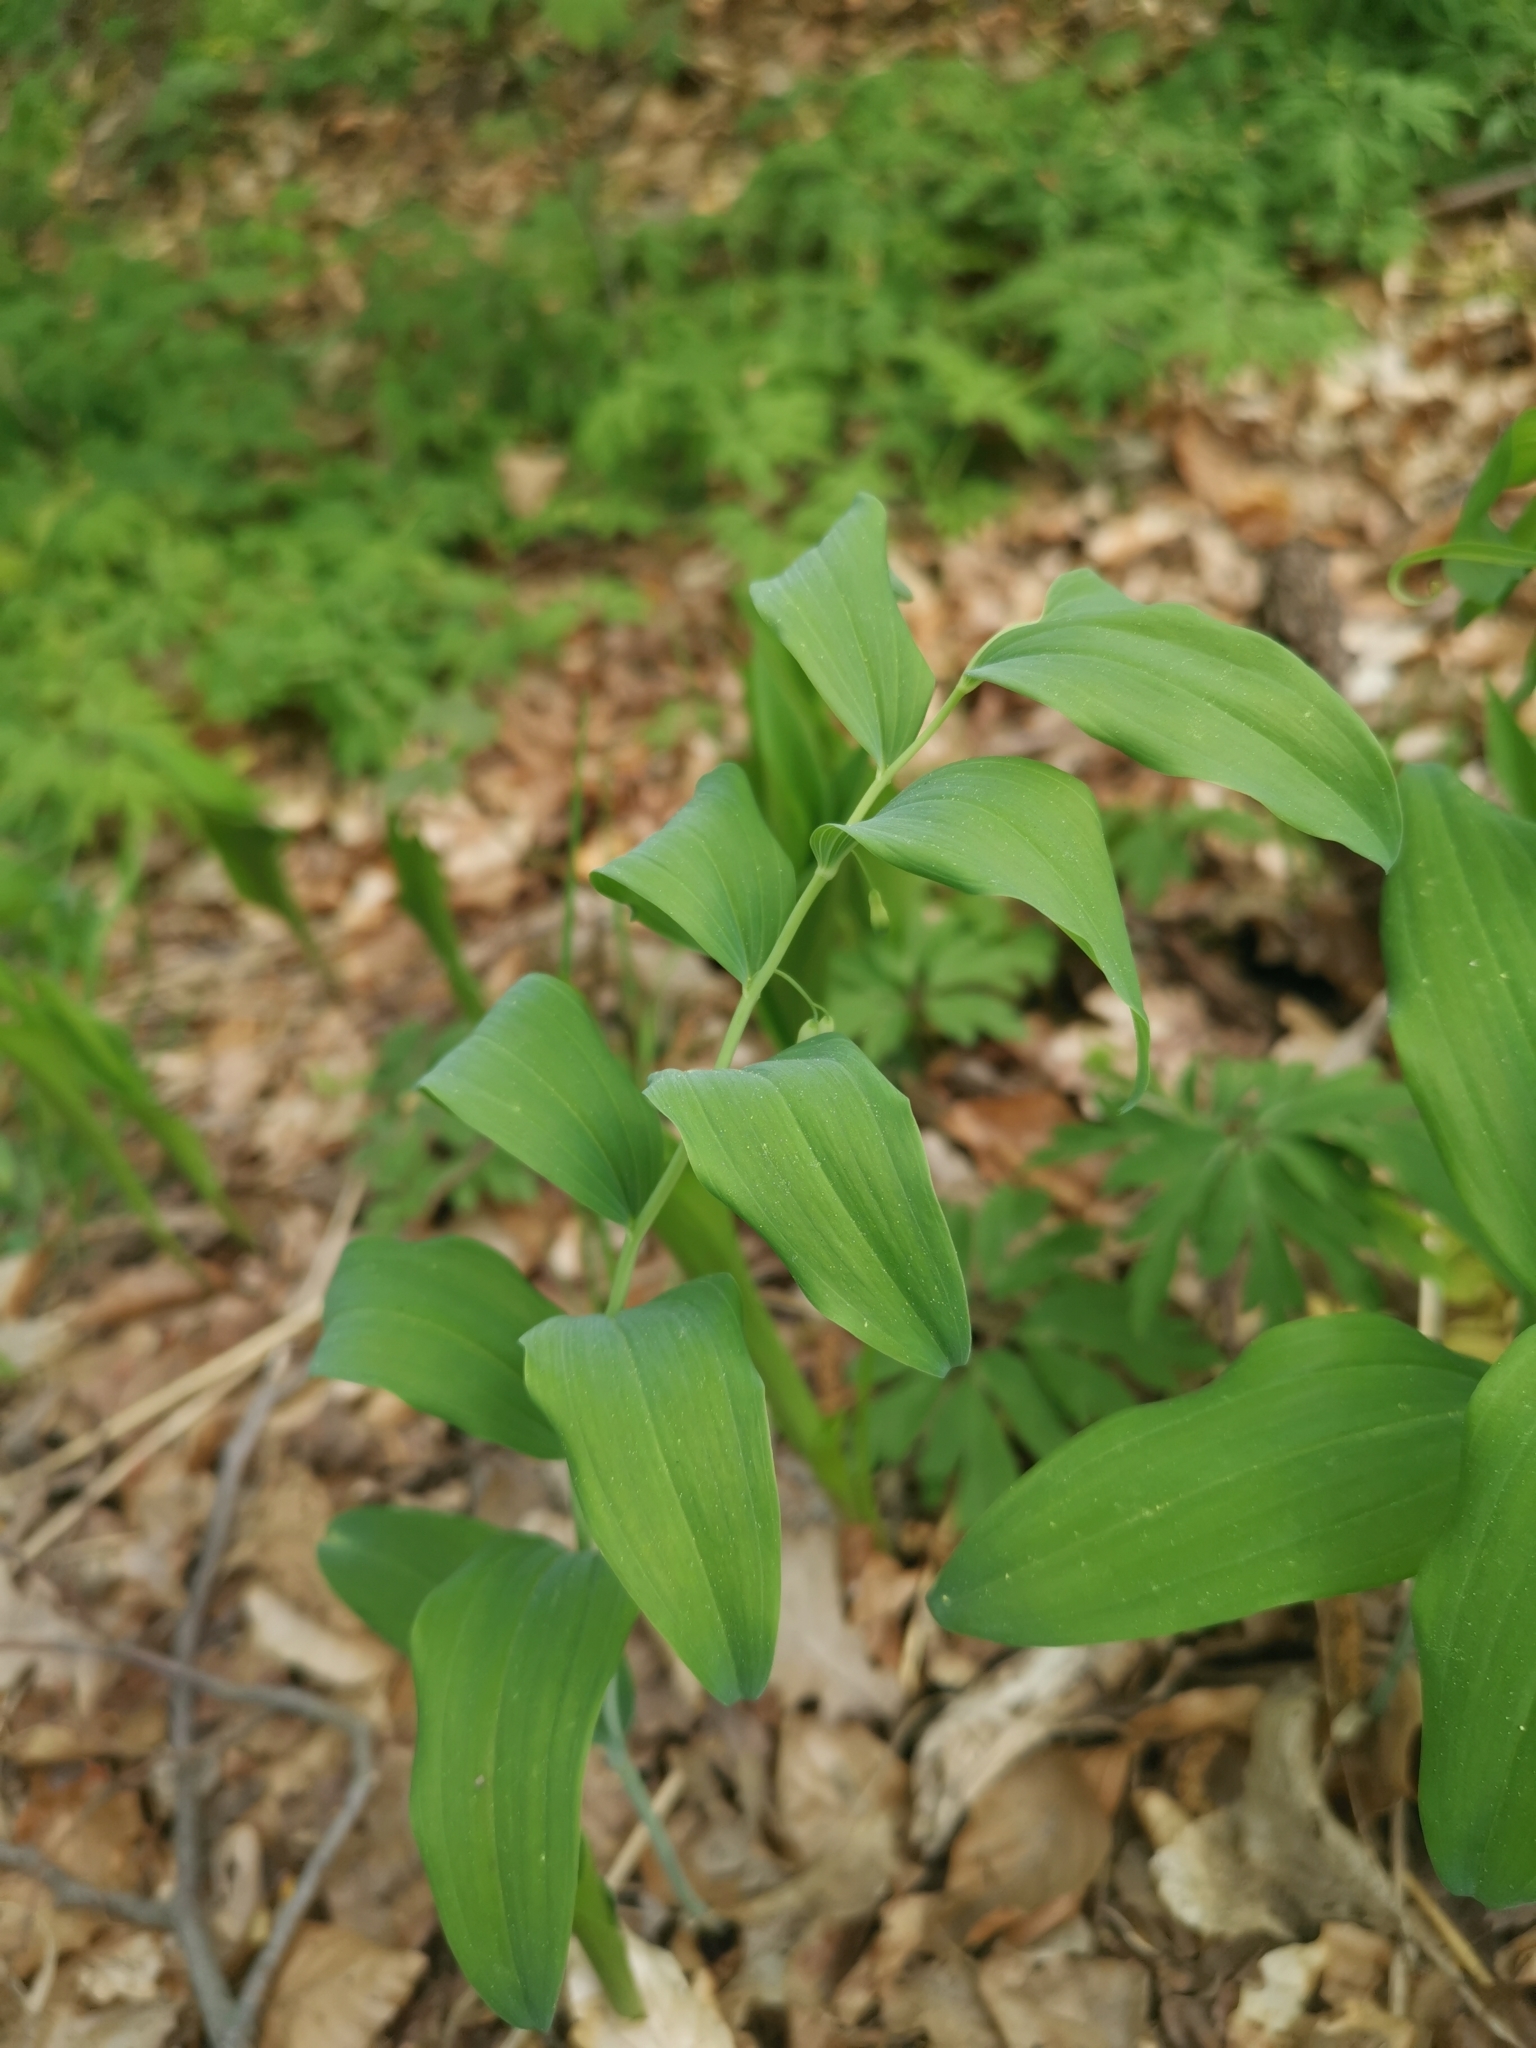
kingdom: Plantae
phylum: Tracheophyta
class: Liliopsida
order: Asparagales
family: Asparagaceae
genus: Polygonatum
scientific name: Polygonatum multiflorum
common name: Solomon's-seal
